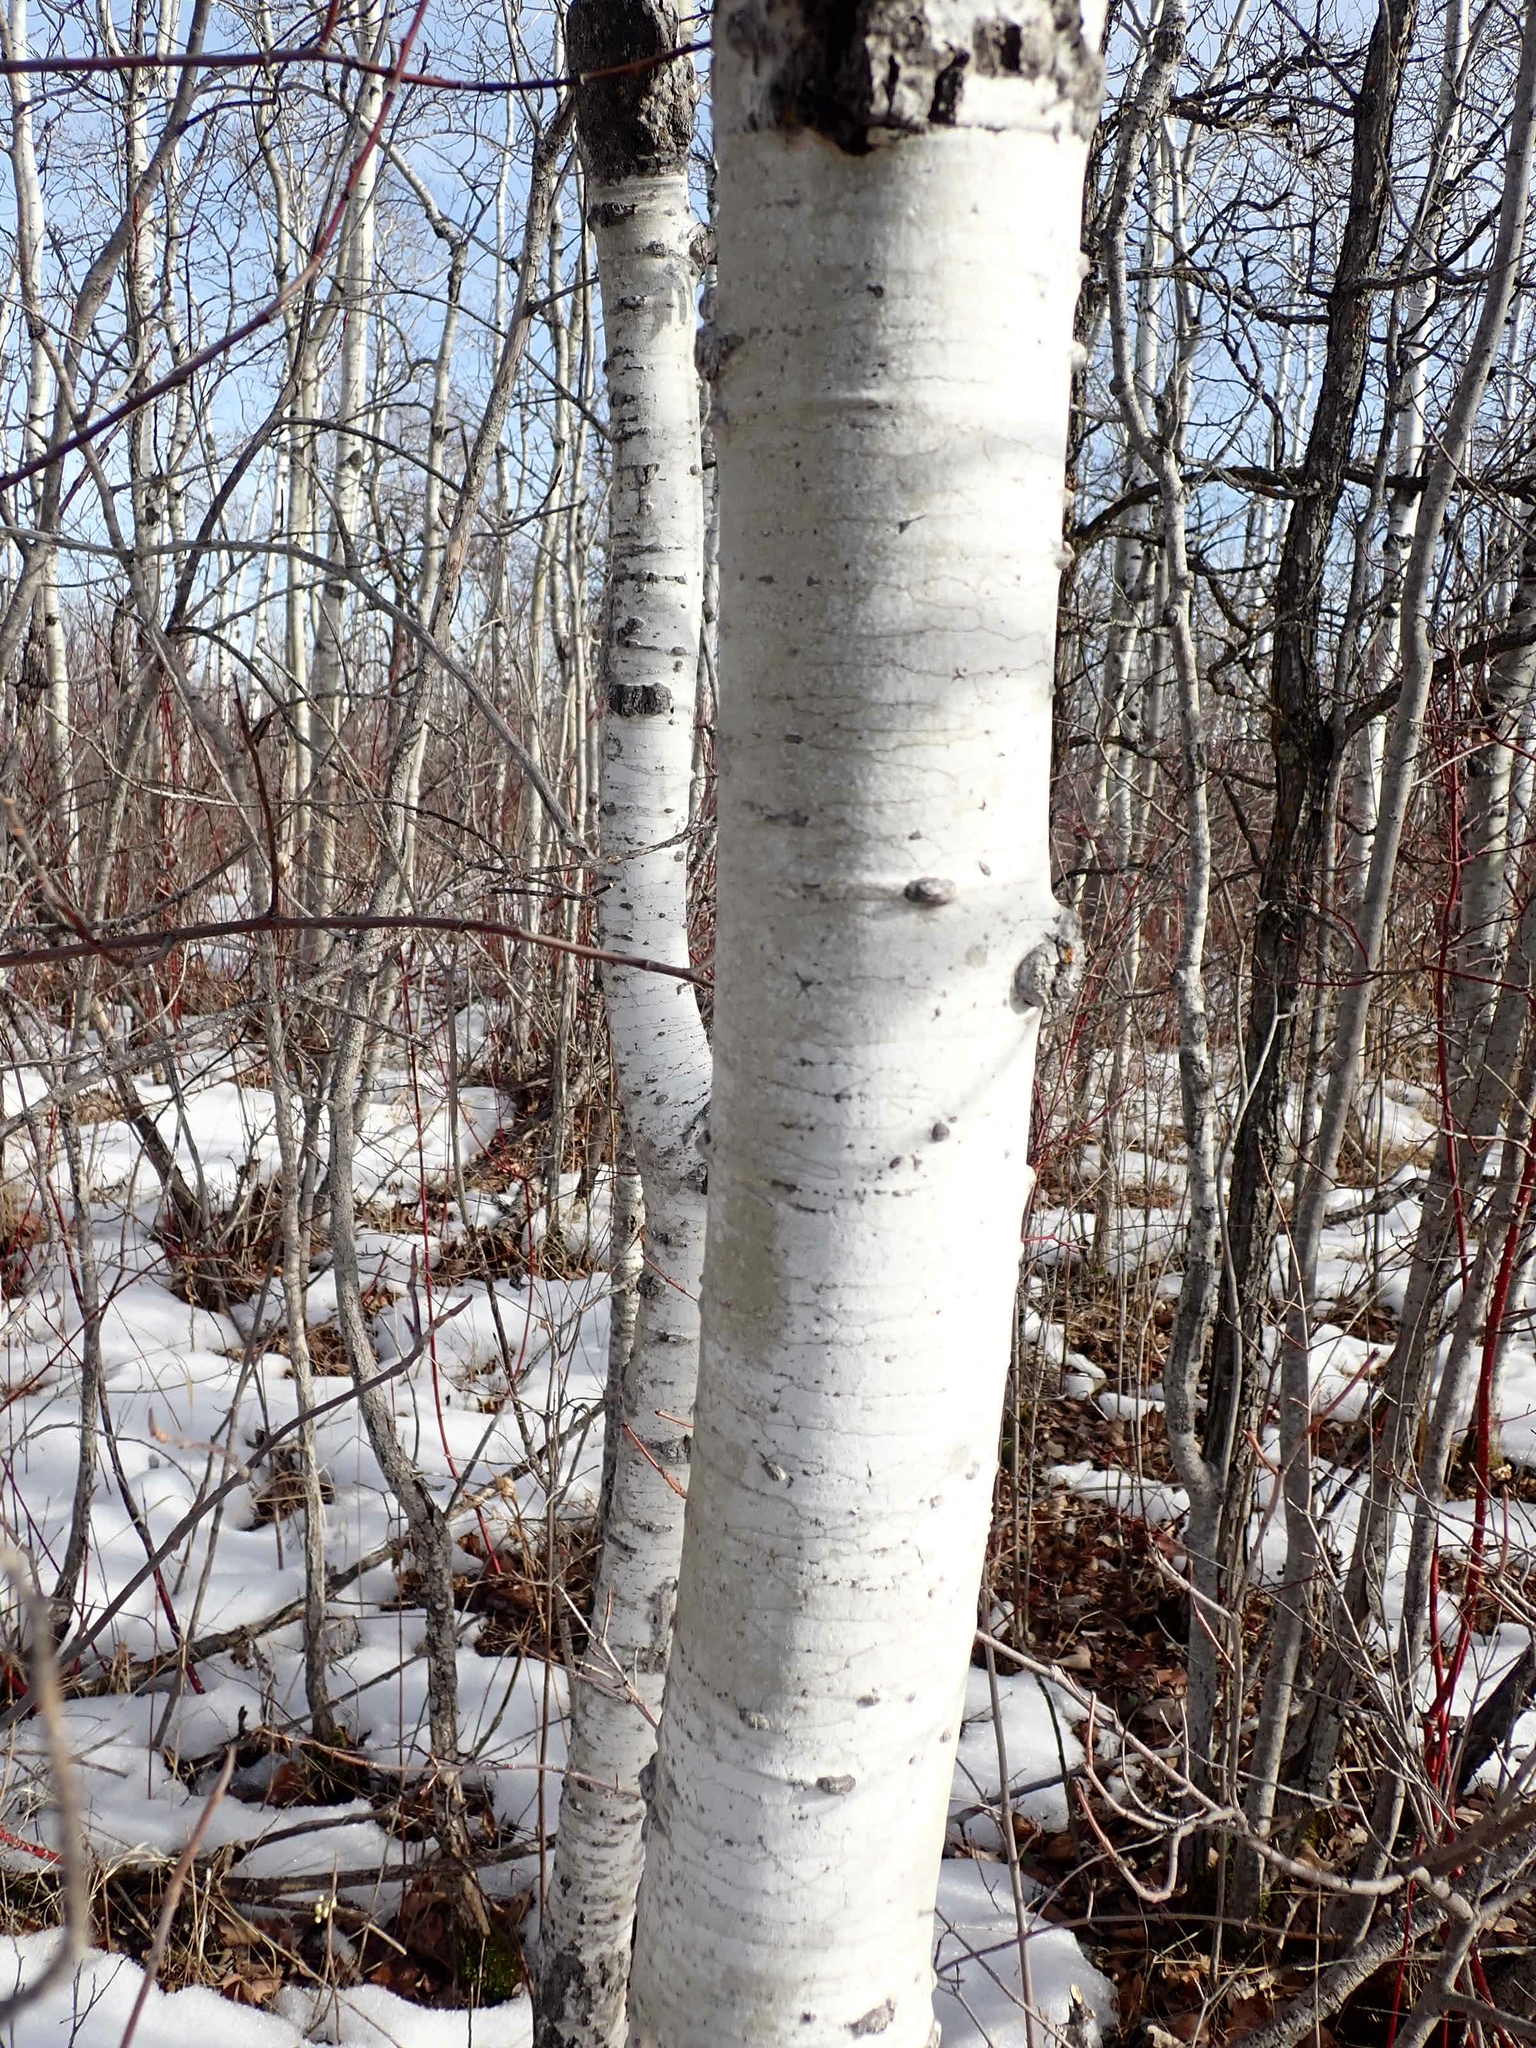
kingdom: Plantae
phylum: Tracheophyta
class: Magnoliopsida
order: Malpighiales
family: Salicaceae
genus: Populus
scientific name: Populus tremuloides
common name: Quaking aspen
